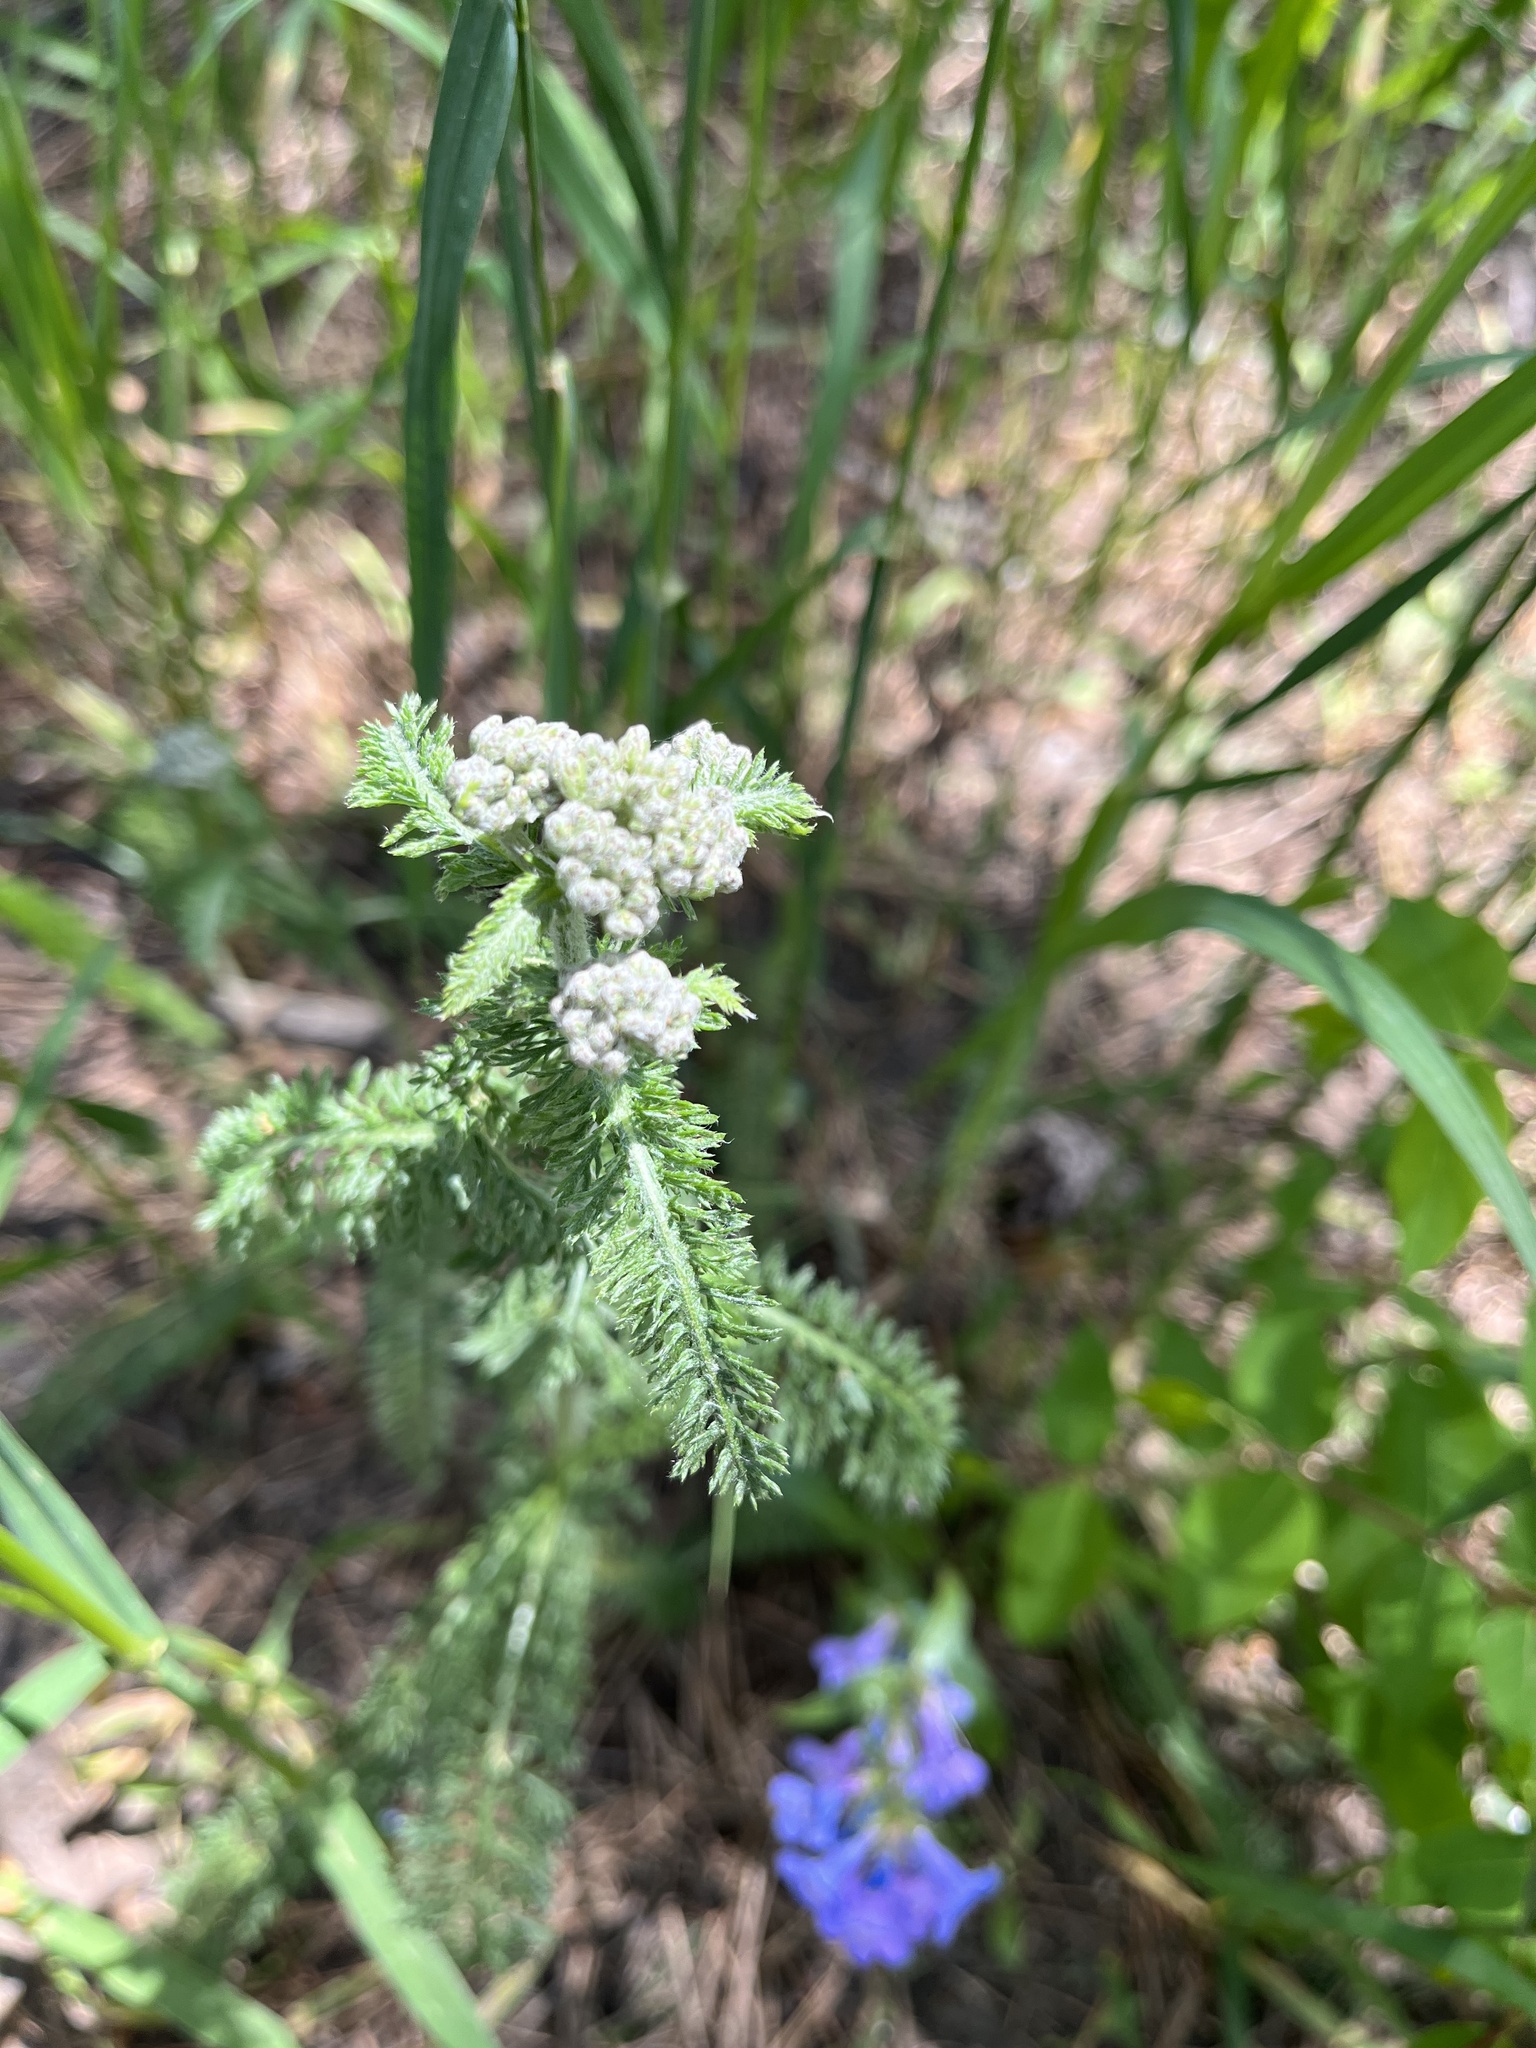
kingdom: Plantae
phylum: Tracheophyta
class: Magnoliopsida
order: Asterales
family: Asteraceae
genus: Achillea
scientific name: Achillea millefolium
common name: Yarrow
